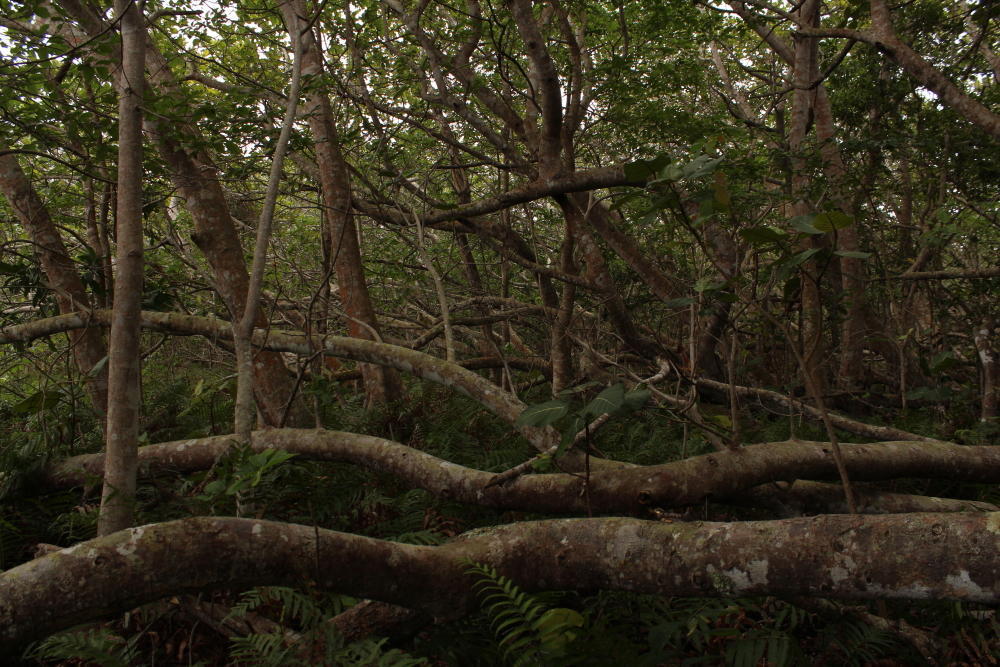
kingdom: Plantae
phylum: Tracheophyta
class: Magnoliopsida
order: Rosales
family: Moraceae
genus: Ficus
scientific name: Ficus trichopoda
